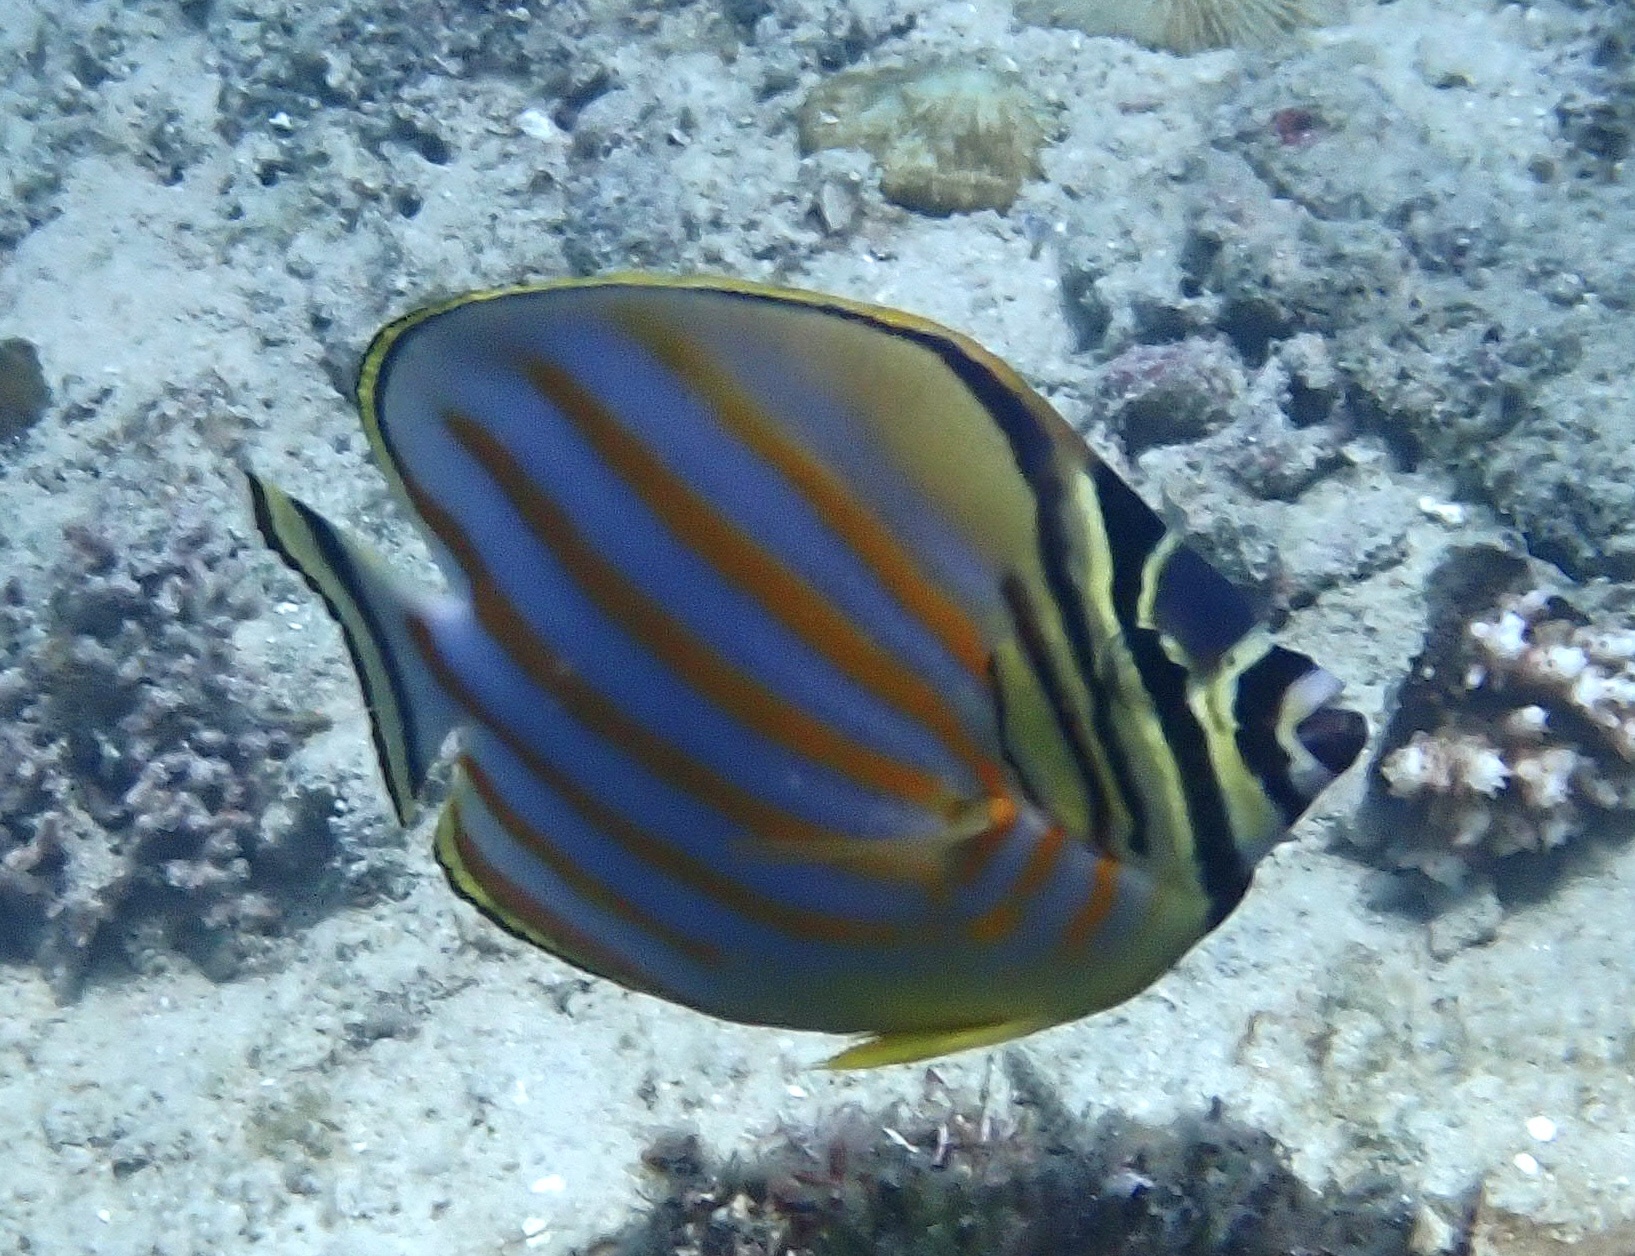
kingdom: Animalia
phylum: Chordata
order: Perciformes
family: Chaetodontidae
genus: Chaetodon
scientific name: Chaetodon ornatissimus
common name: Ornate butterflyfish
